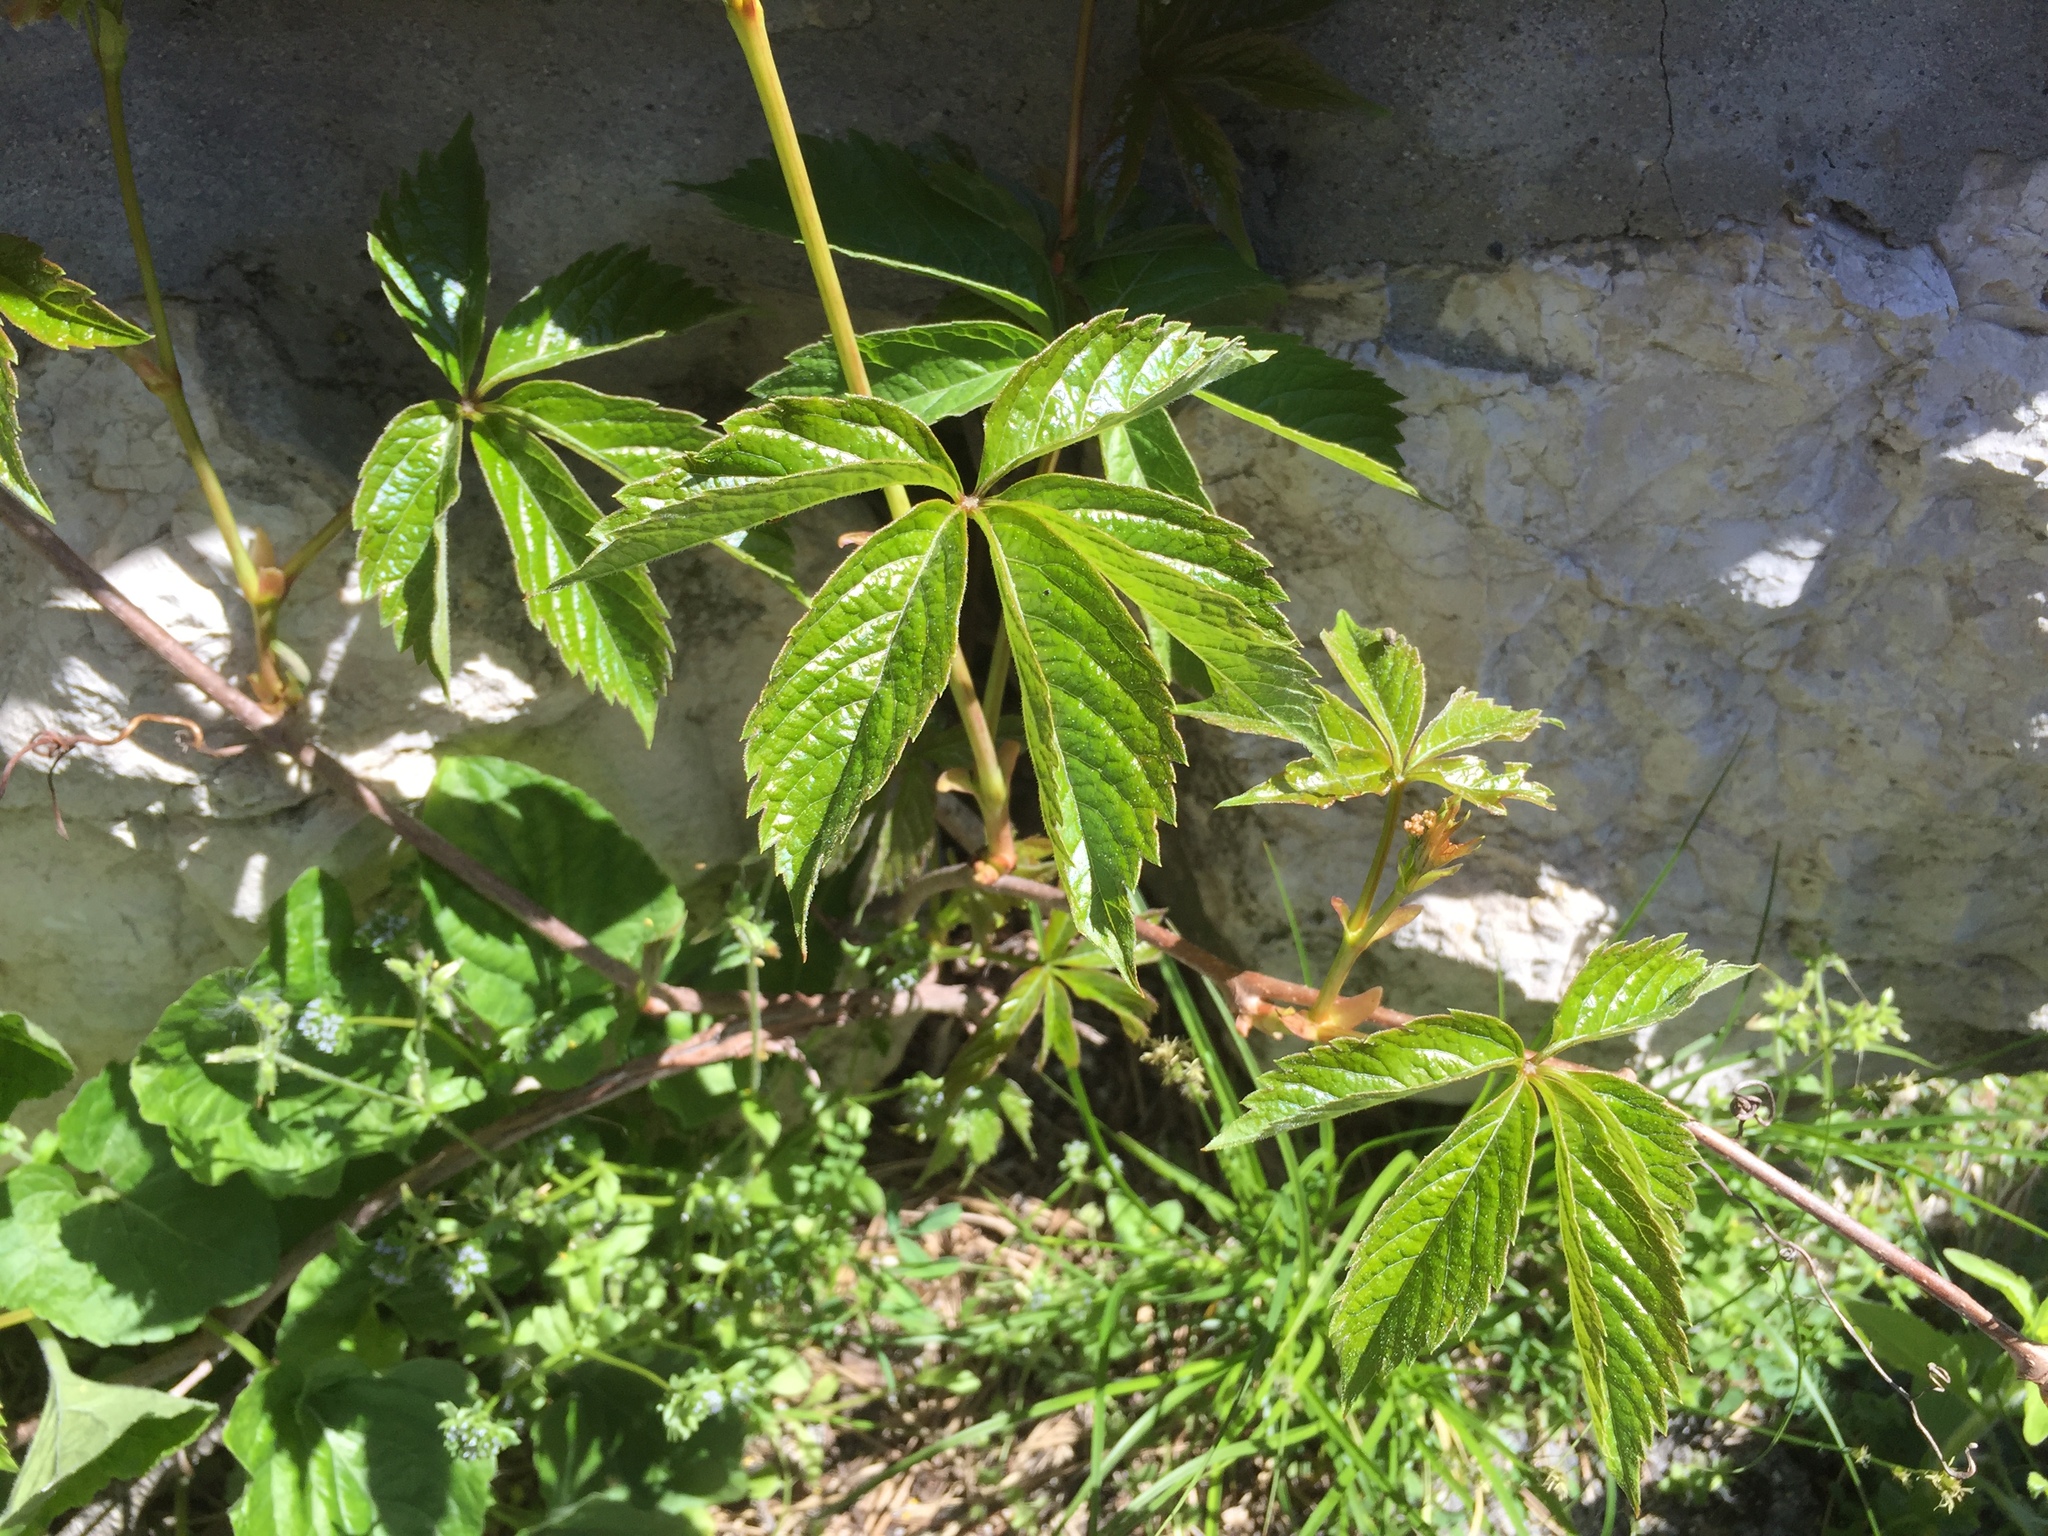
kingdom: Plantae
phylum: Tracheophyta
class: Magnoliopsida
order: Vitales
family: Vitaceae
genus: Parthenocissus
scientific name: Parthenocissus quinquefolia
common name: Virginia-creeper
